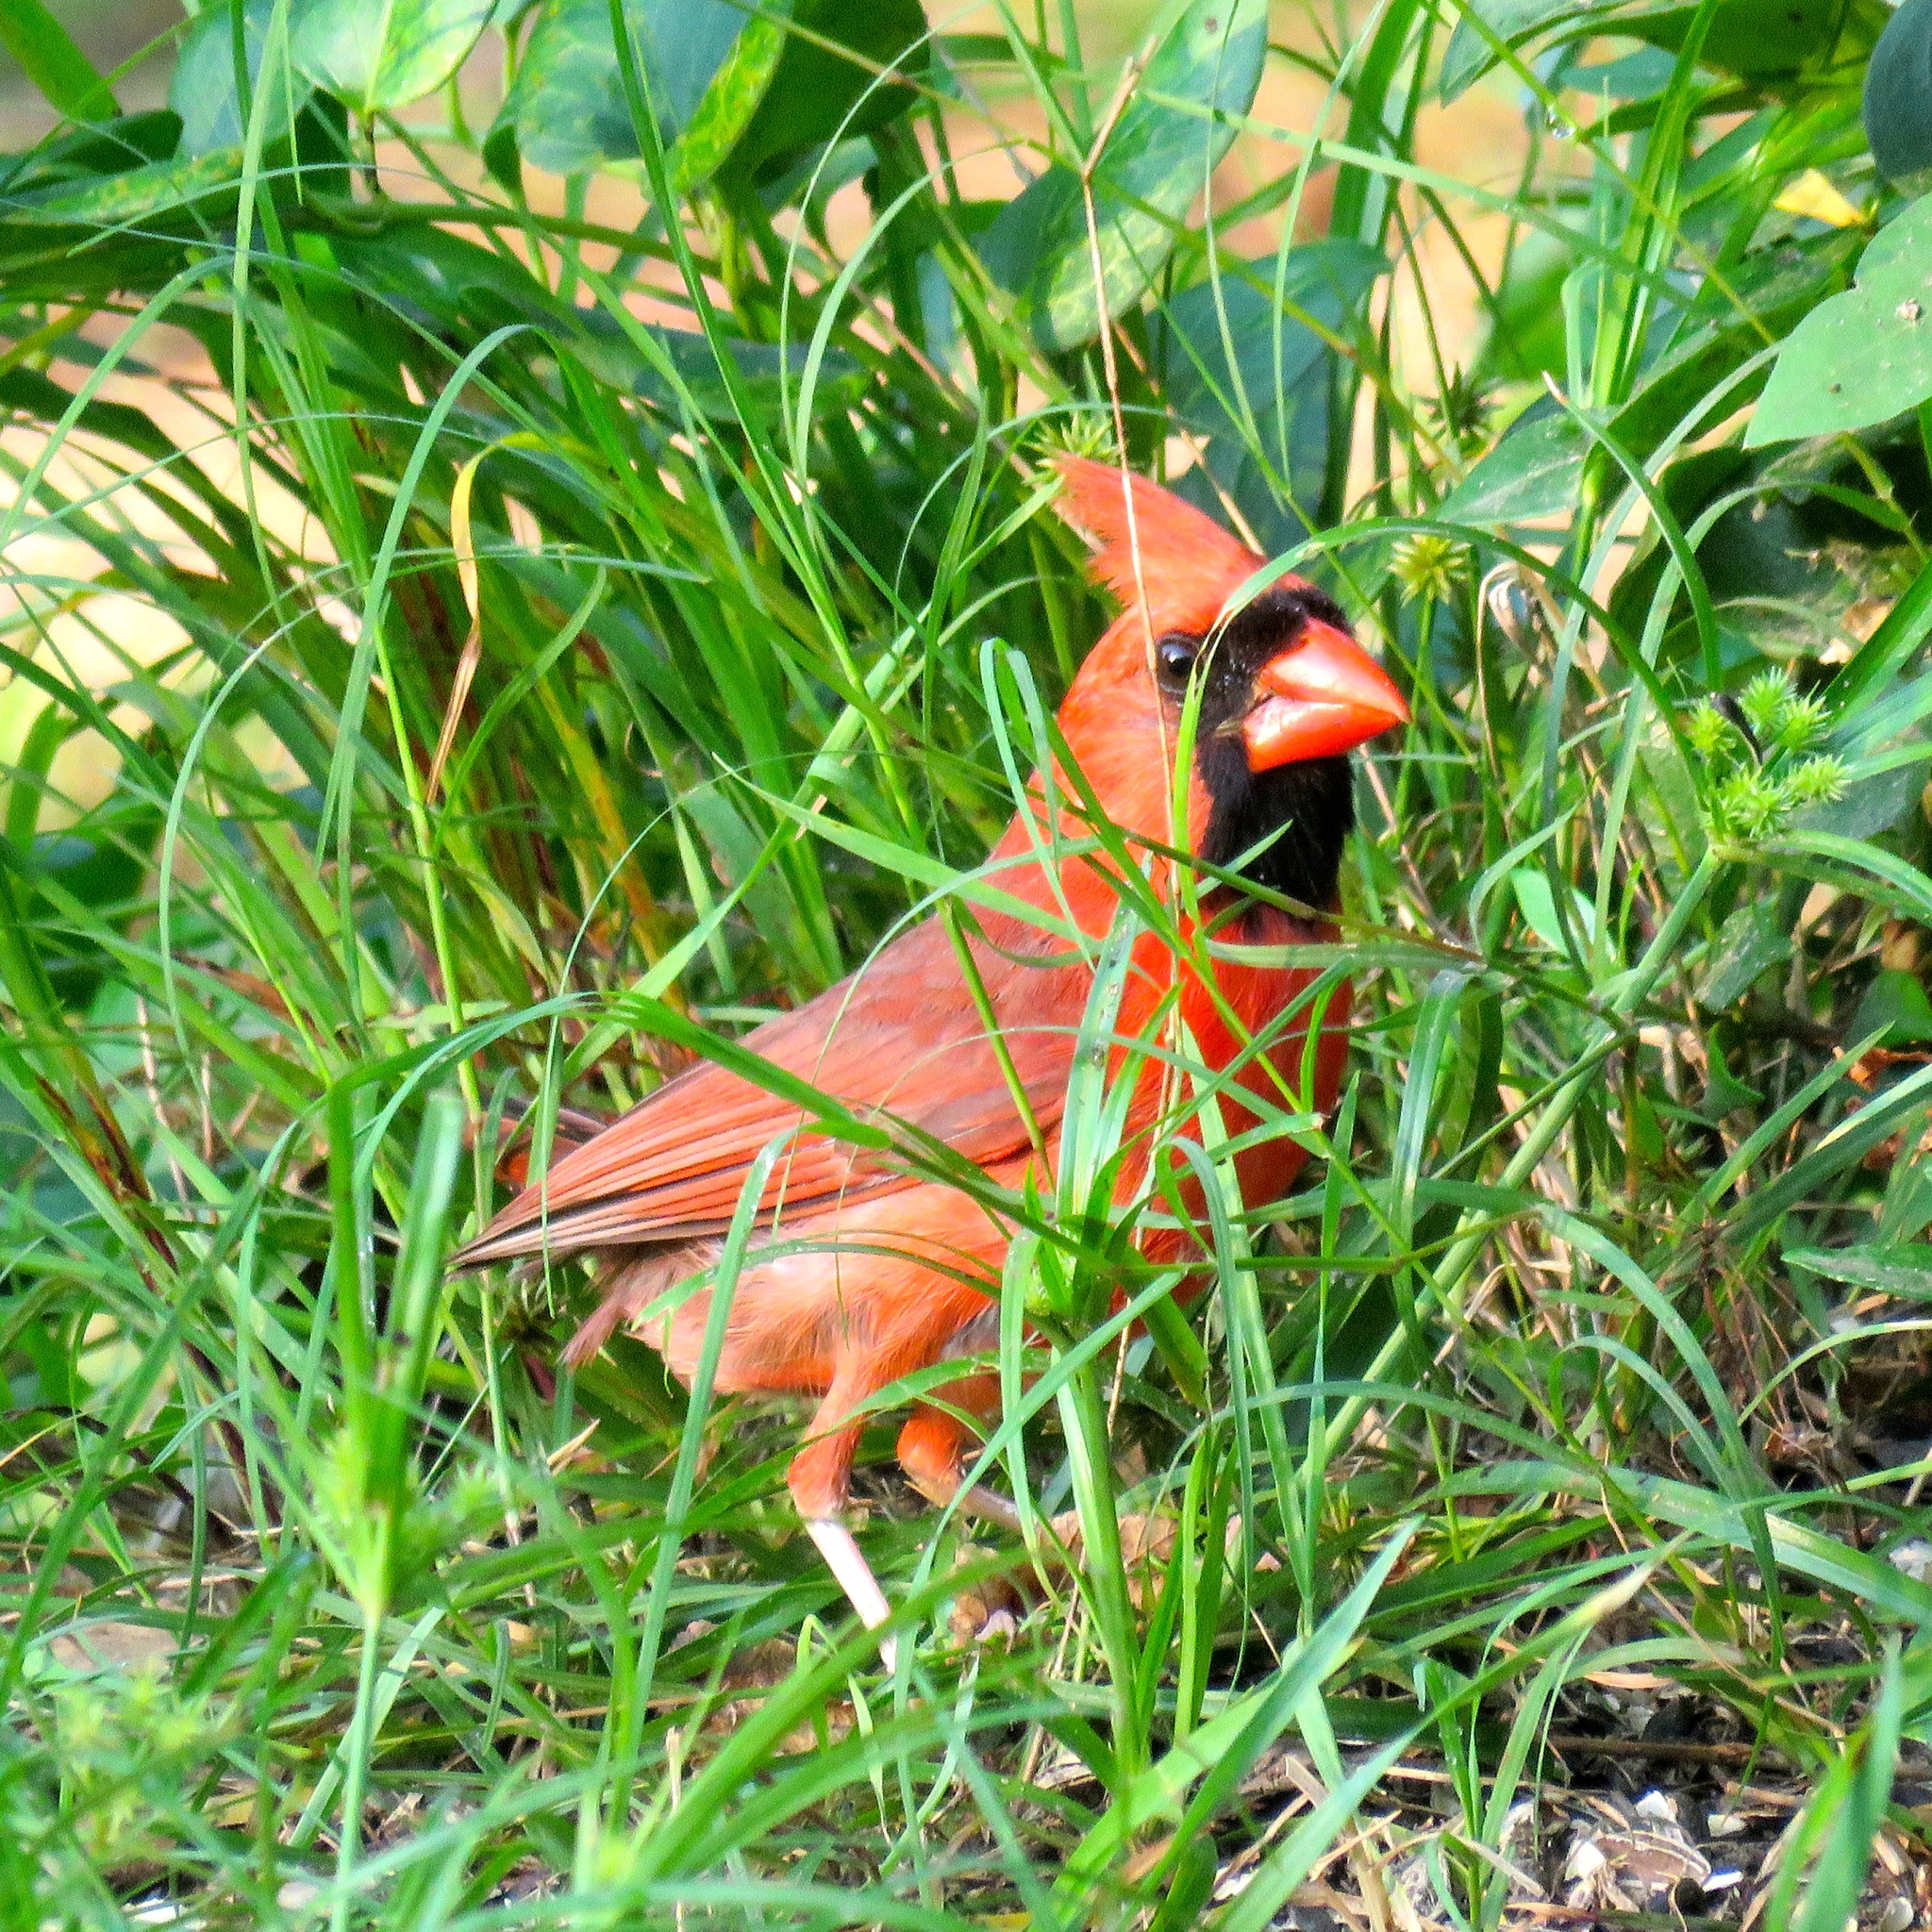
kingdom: Animalia
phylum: Chordata
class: Aves
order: Passeriformes
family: Cardinalidae
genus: Cardinalis
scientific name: Cardinalis cardinalis
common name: Northern cardinal
